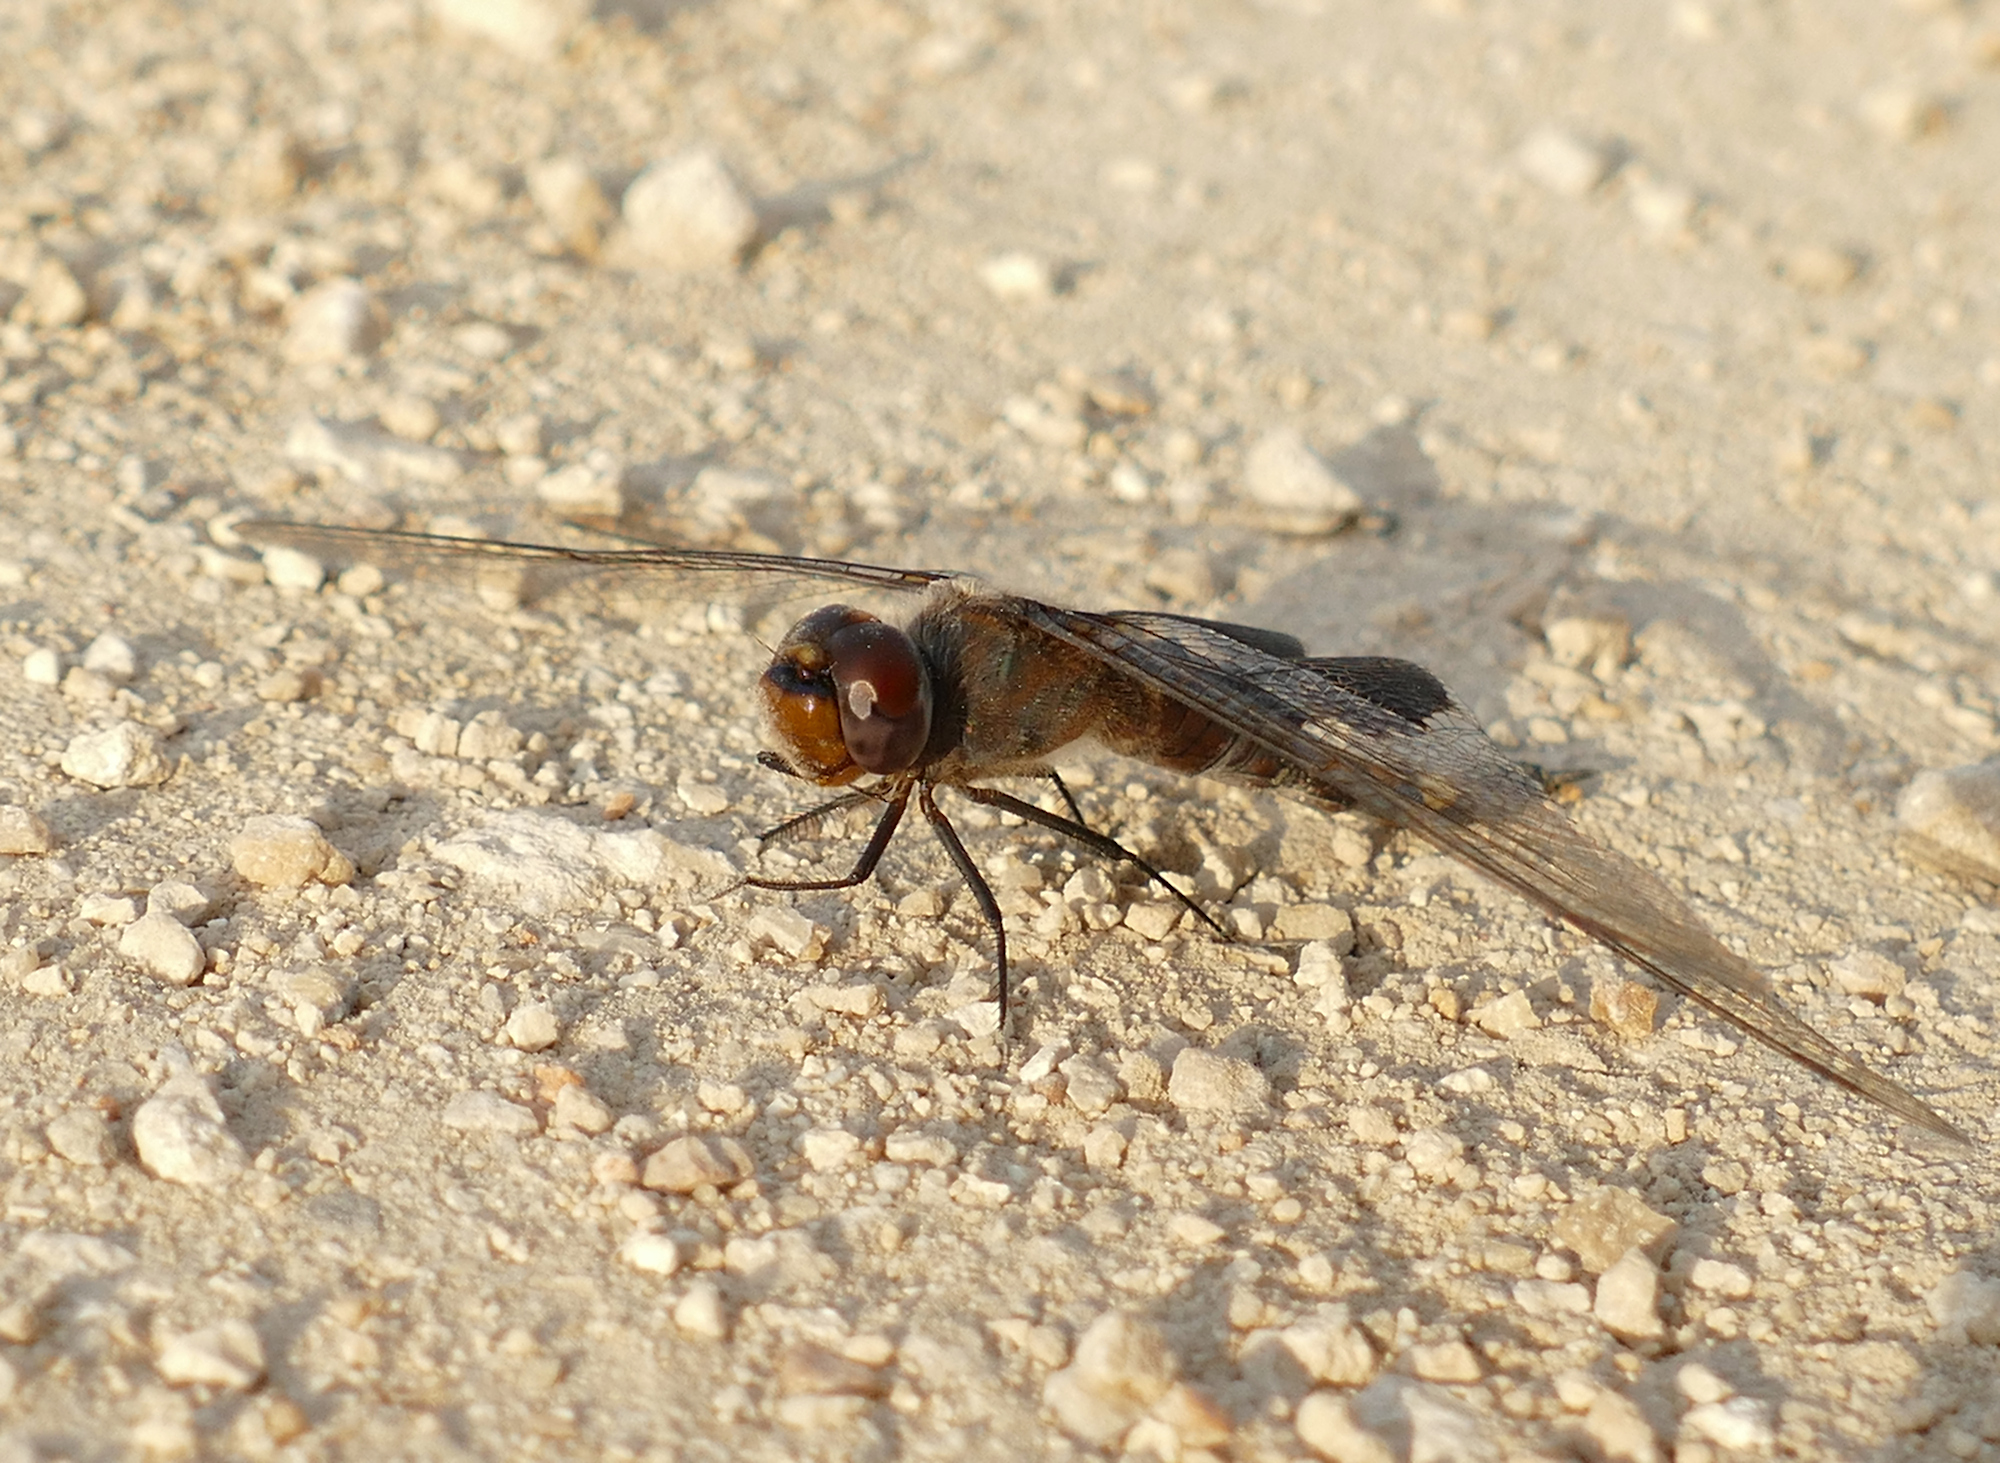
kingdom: Animalia
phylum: Arthropoda
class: Insecta
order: Odonata
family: Libellulidae
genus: Tramea
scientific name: Tramea lacerata
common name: Black saddlebags
